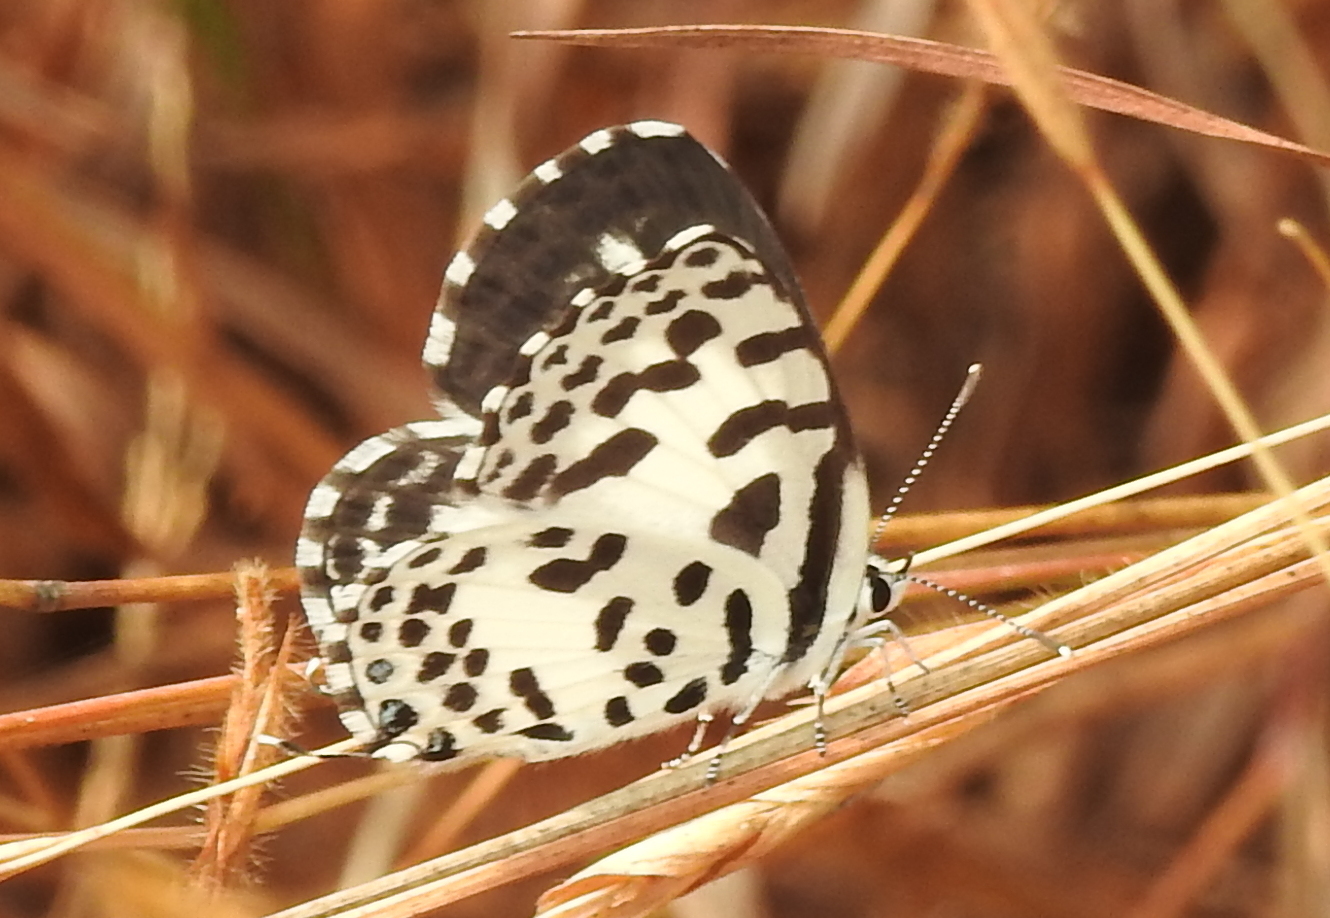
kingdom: Animalia
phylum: Arthropoda
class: Insecta
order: Lepidoptera
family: Lycaenidae
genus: Castalius
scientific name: Castalius rosimon
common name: Common pierrot
